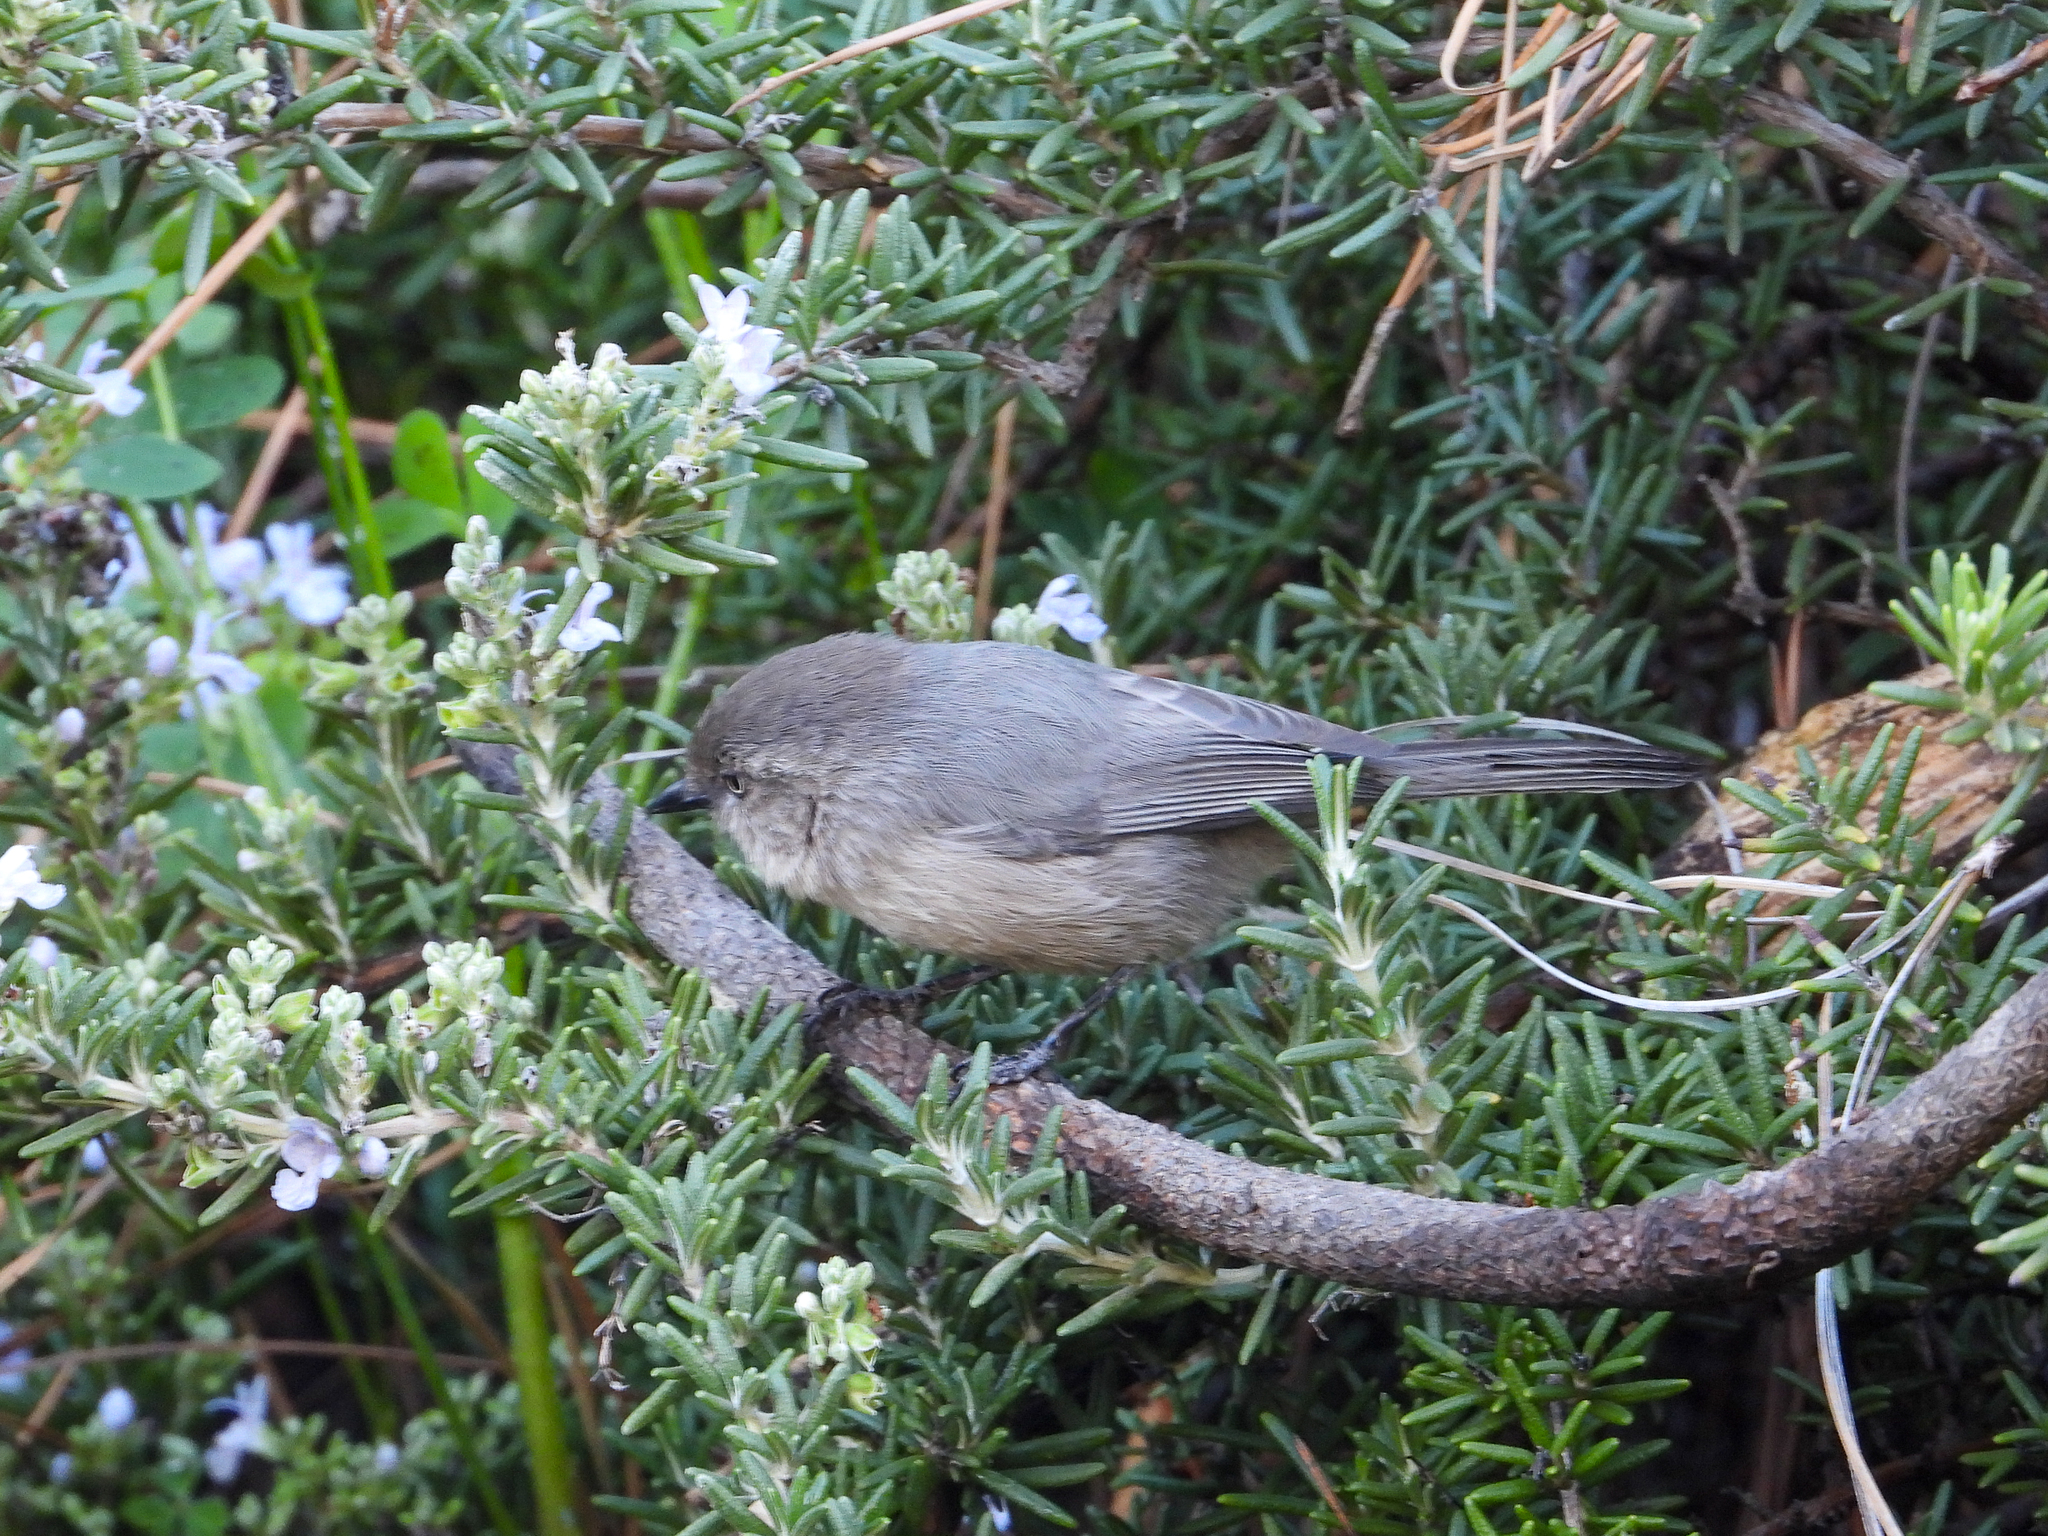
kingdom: Animalia
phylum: Chordata
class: Aves
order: Passeriformes
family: Aegithalidae
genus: Psaltriparus
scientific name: Psaltriparus minimus
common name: American bushtit
